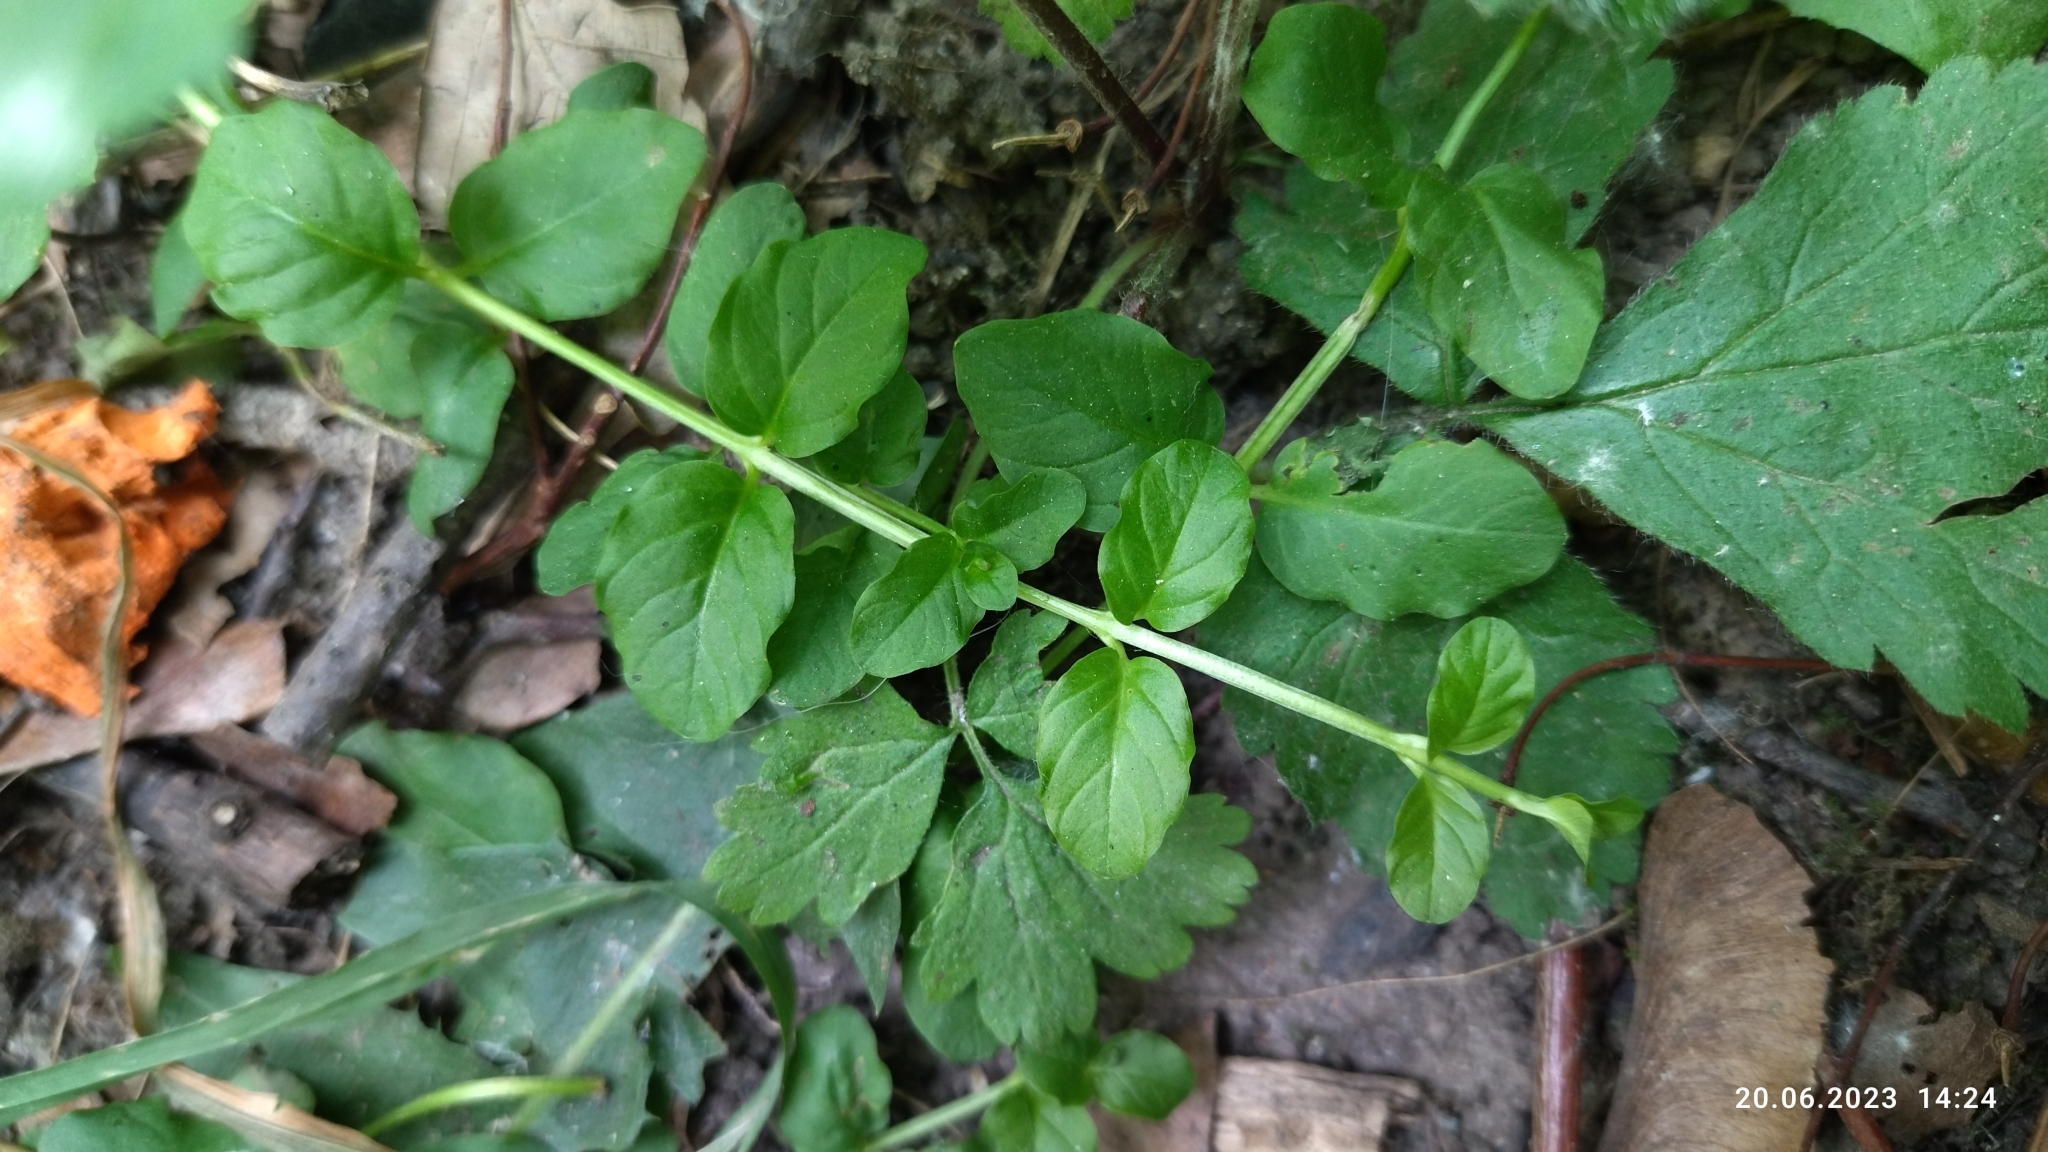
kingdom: Plantae
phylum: Tracheophyta
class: Magnoliopsida
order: Ericales
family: Primulaceae
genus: Lysimachia
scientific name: Lysimachia nummularia
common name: Moneywort
